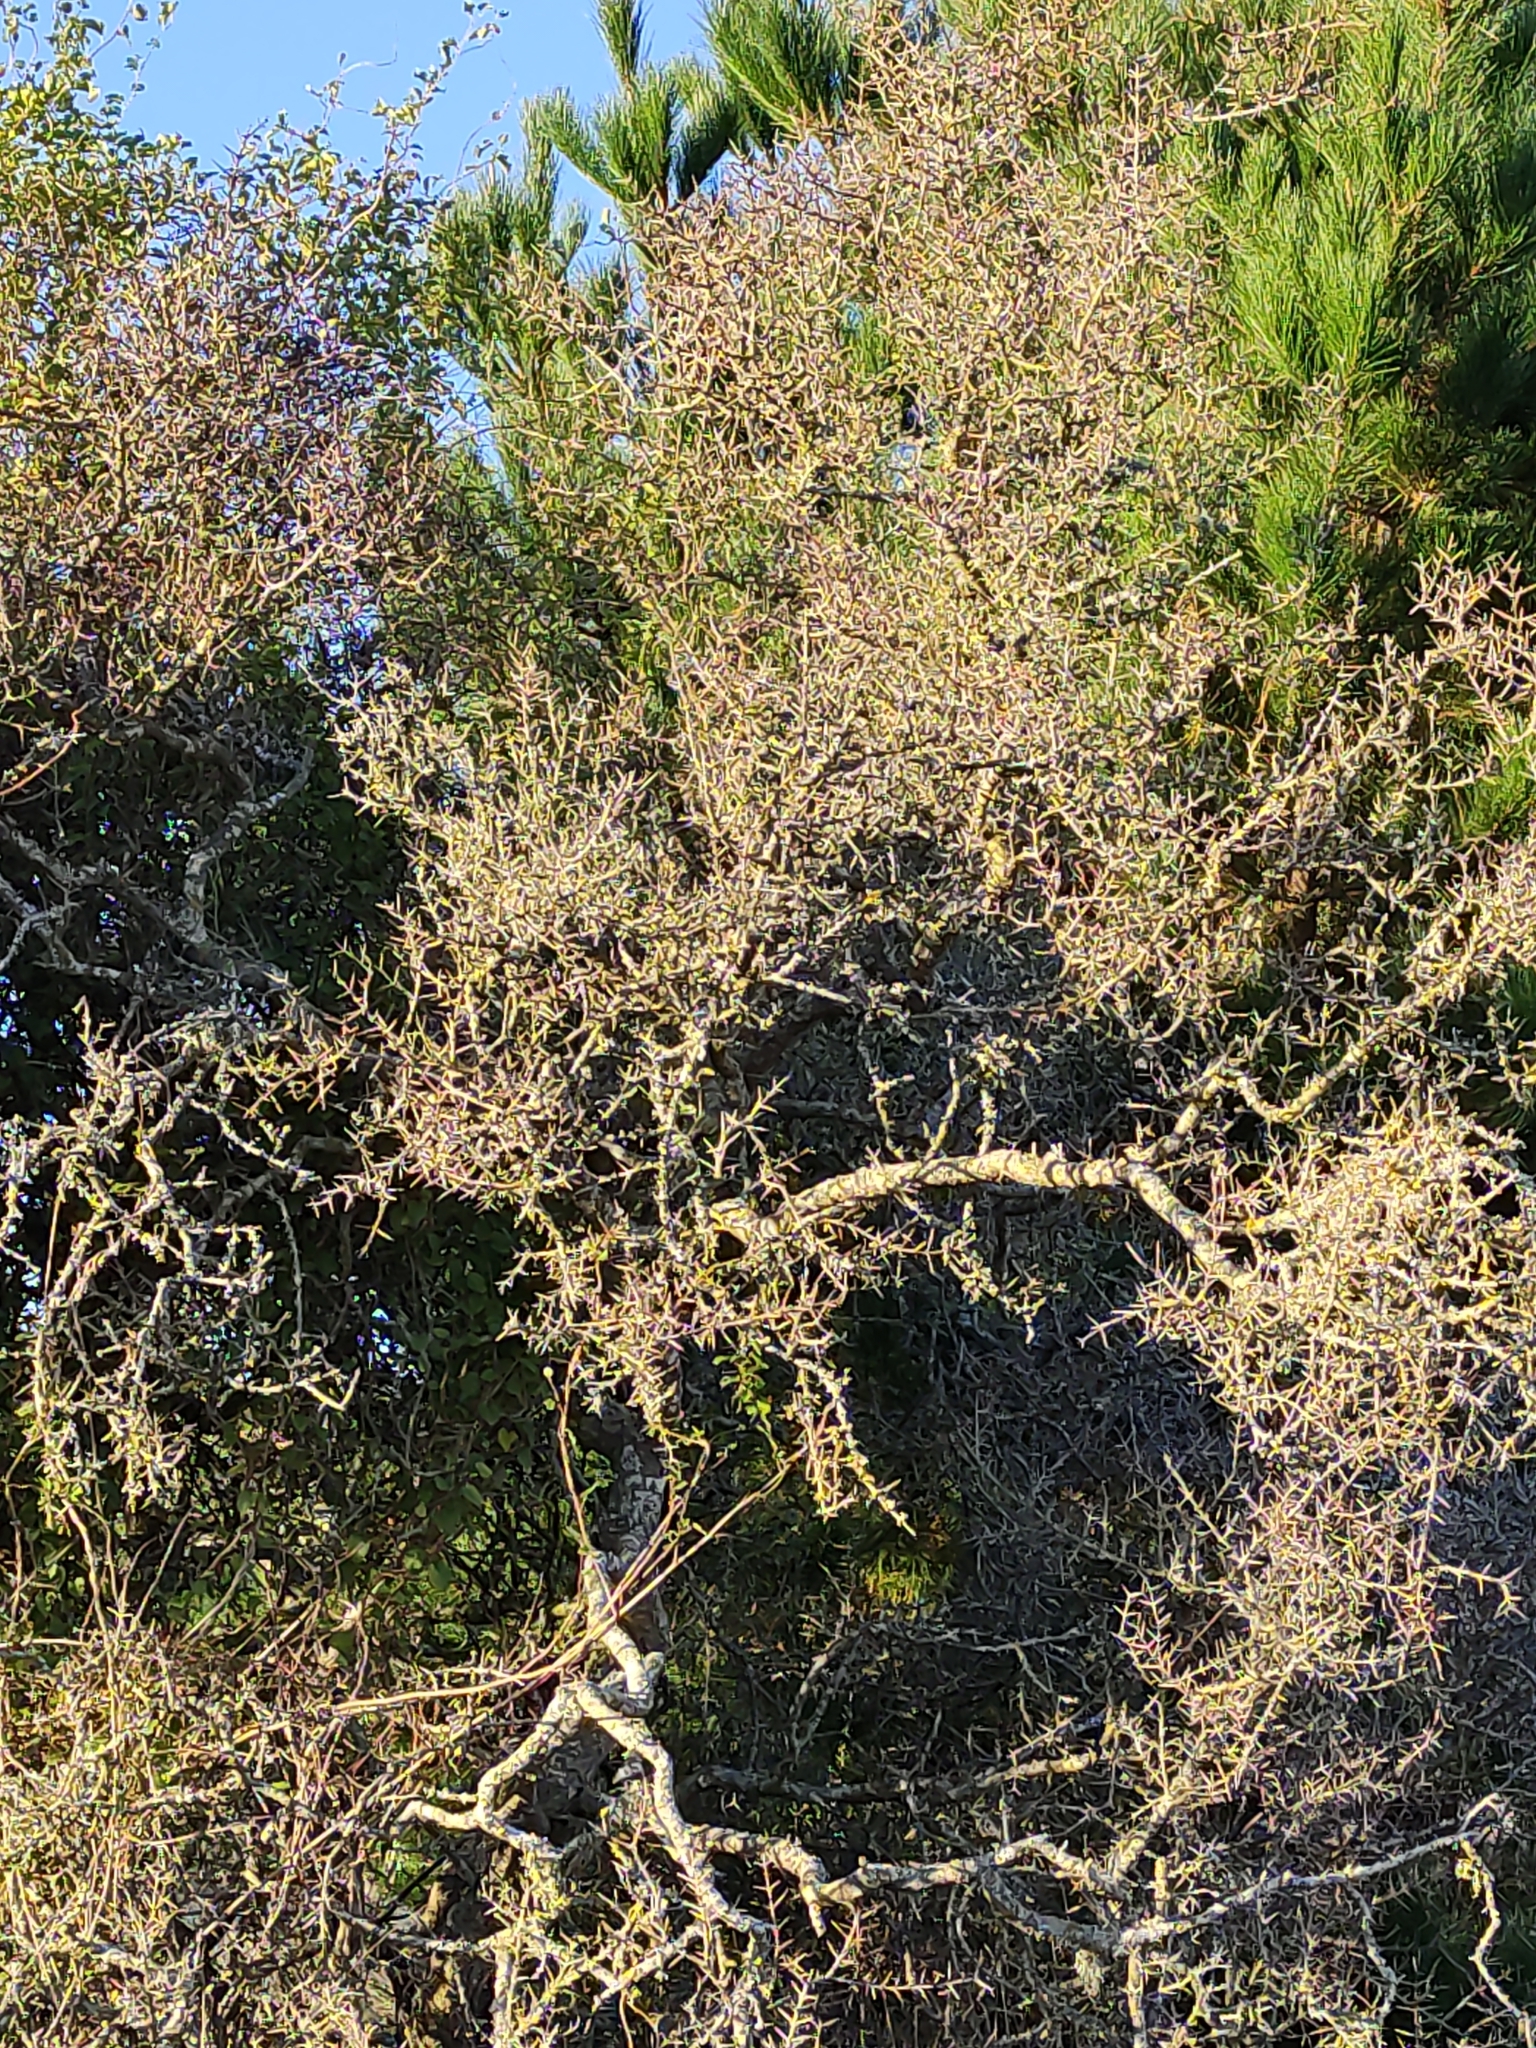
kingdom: Plantae
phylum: Tracheophyta
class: Magnoliopsida
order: Rosales
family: Rhamnaceae
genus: Discaria
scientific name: Discaria toumatou
